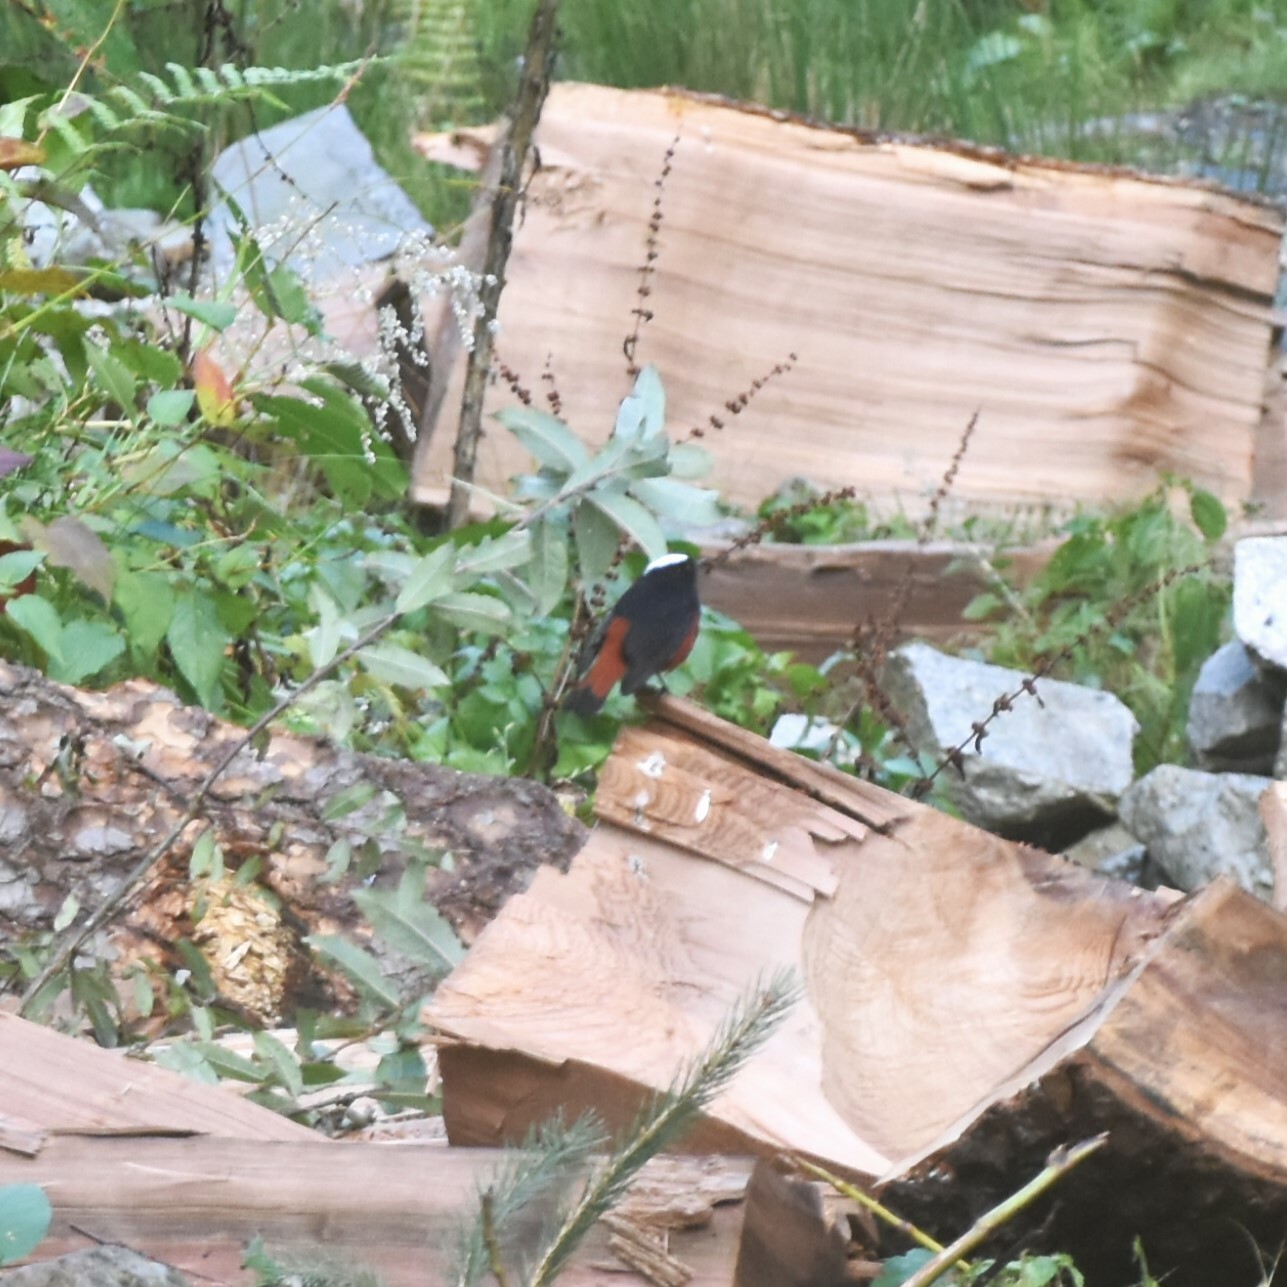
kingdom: Animalia
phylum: Chordata
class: Aves
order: Passeriformes
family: Muscicapidae
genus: Chaimarrornis
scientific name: Chaimarrornis leucocephalus
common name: White-capped redstart
